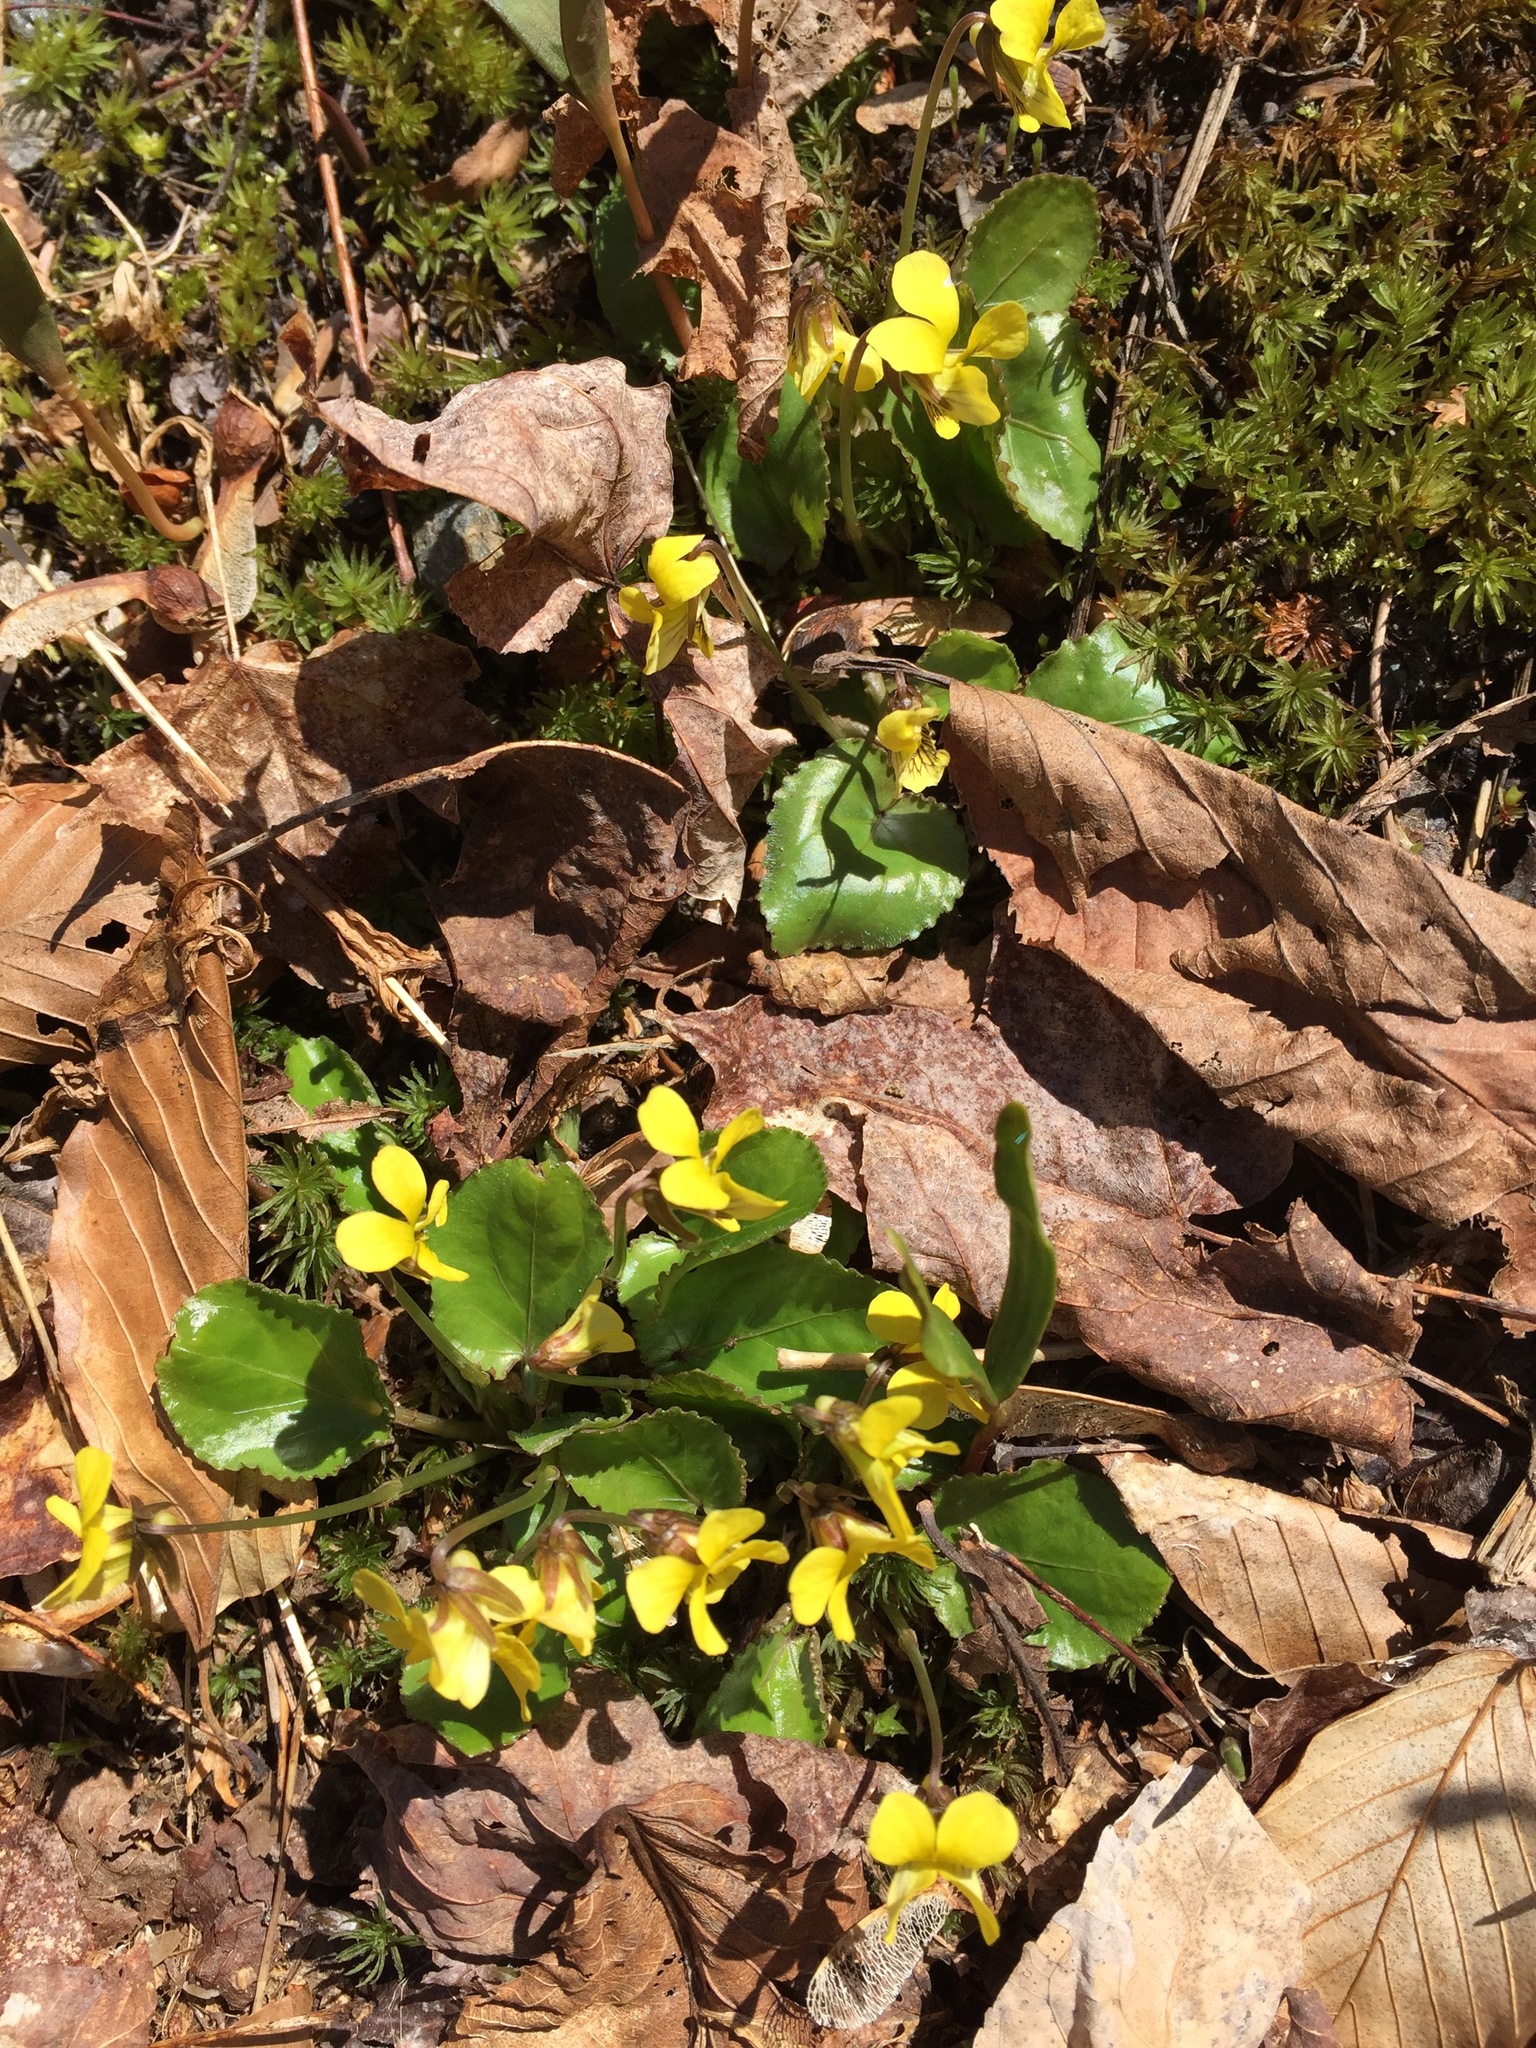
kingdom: Plantae
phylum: Tracheophyta
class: Magnoliopsida
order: Malpighiales
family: Violaceae
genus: Viola
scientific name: Viola rotundifolia
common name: Early yellow violet
